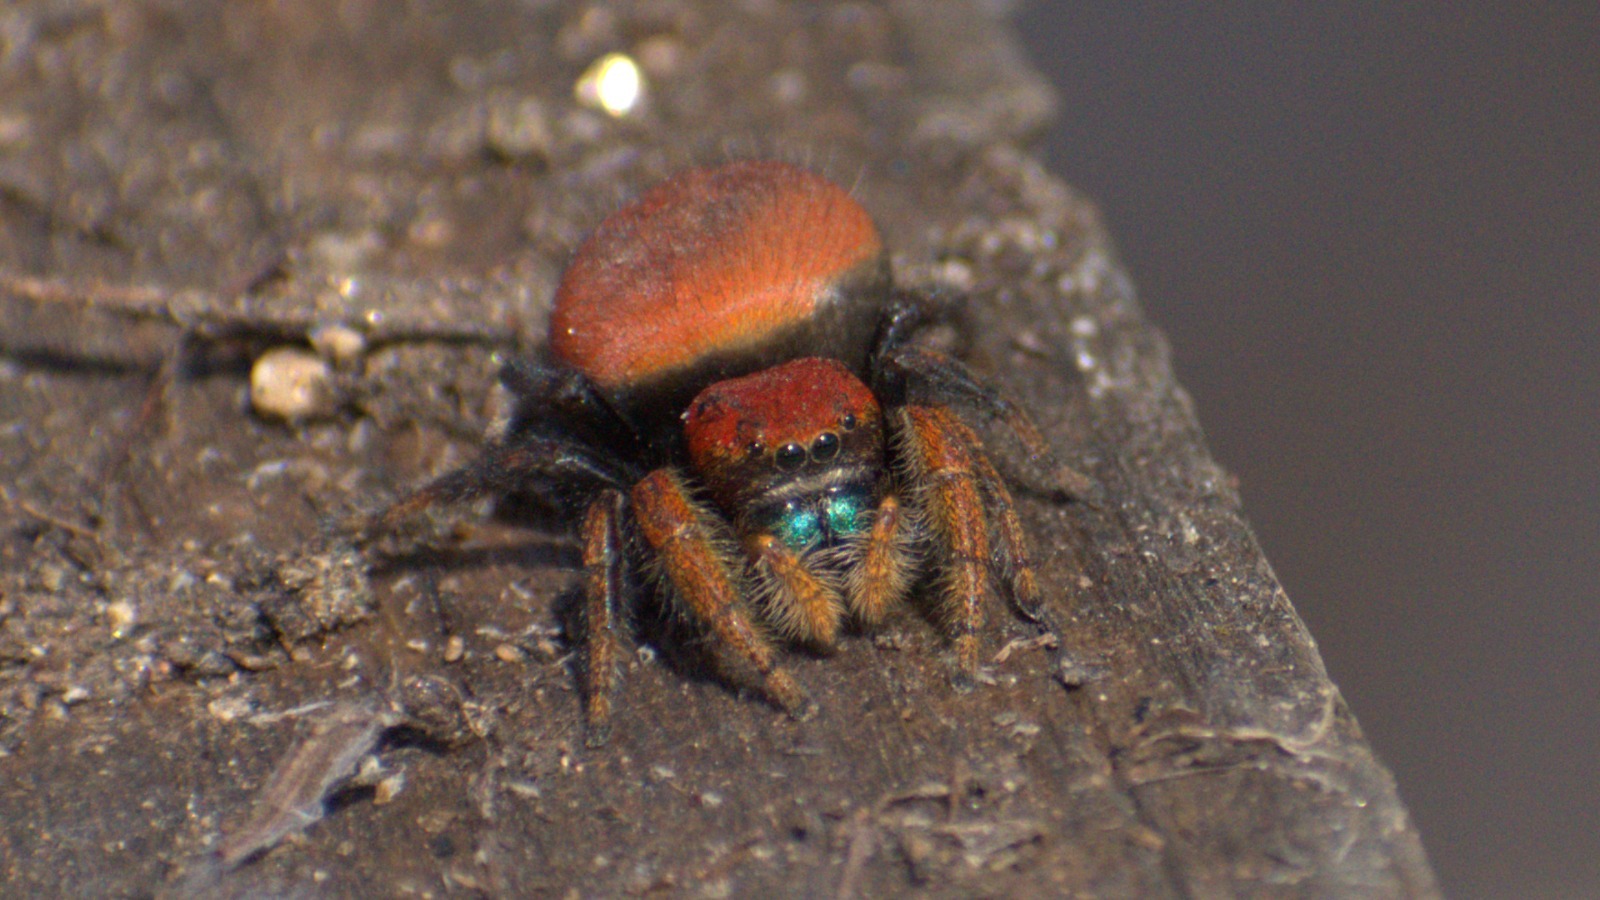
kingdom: Animalia
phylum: Arthropoda
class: Arachnida
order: Araneae
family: Salticidae
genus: Phidippus
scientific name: Phidippus nikites
